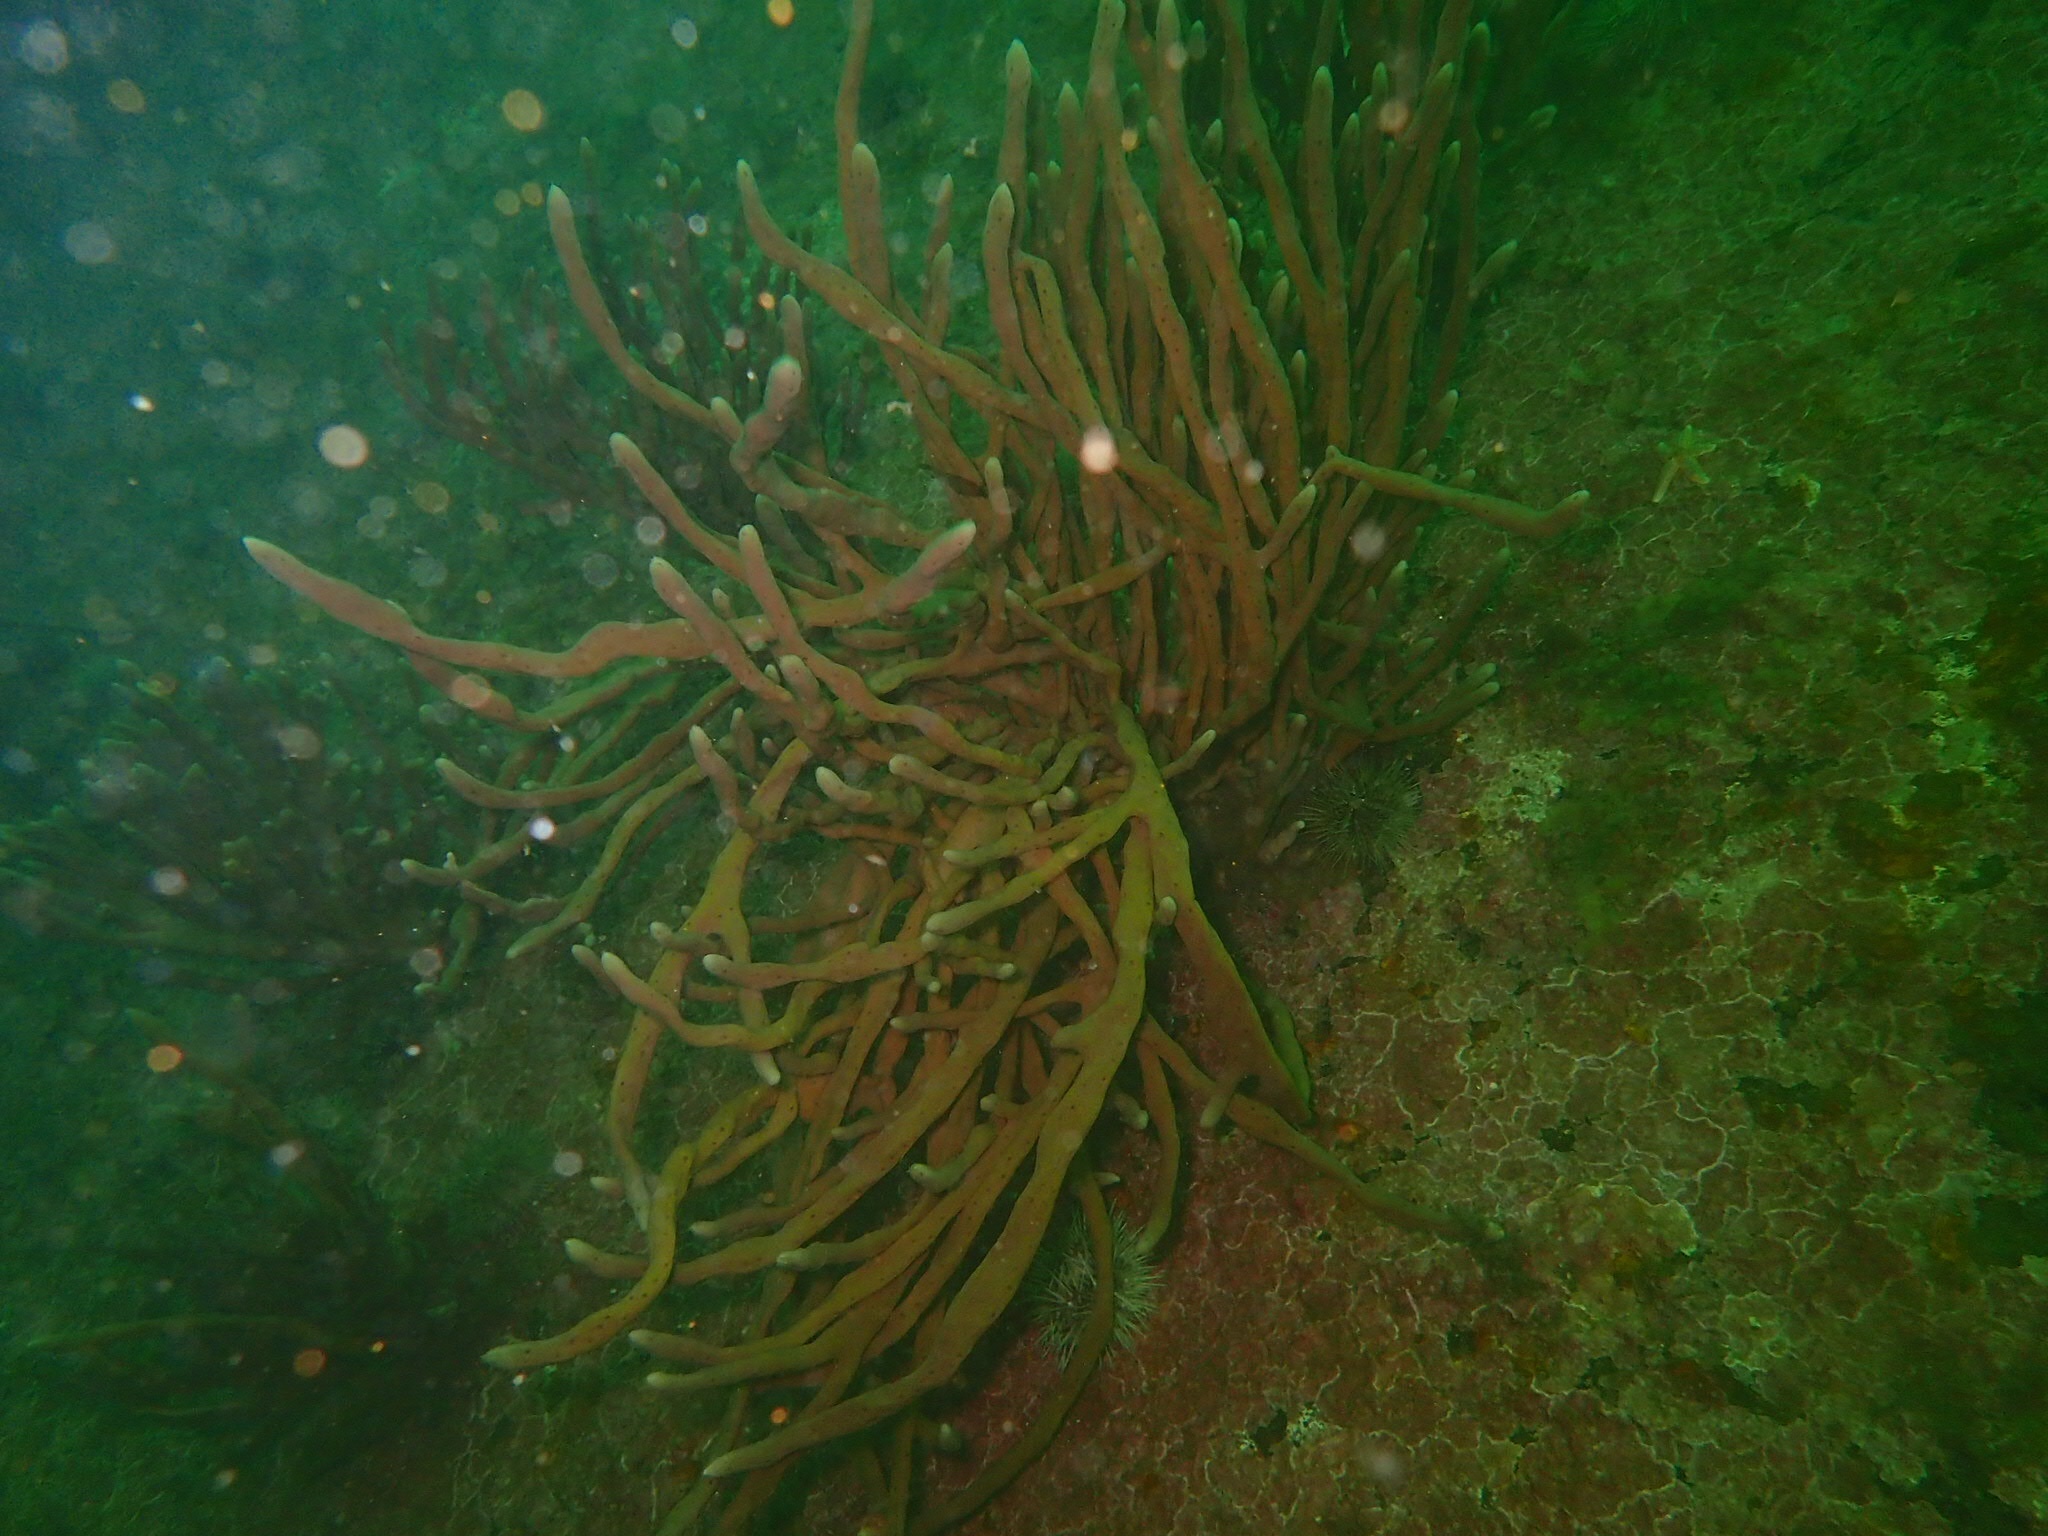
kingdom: Animalia
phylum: Porifera
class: Demospongiae
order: Haplosclerida
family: Chalinidae
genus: Haliclona
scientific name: Haliclona oculata
